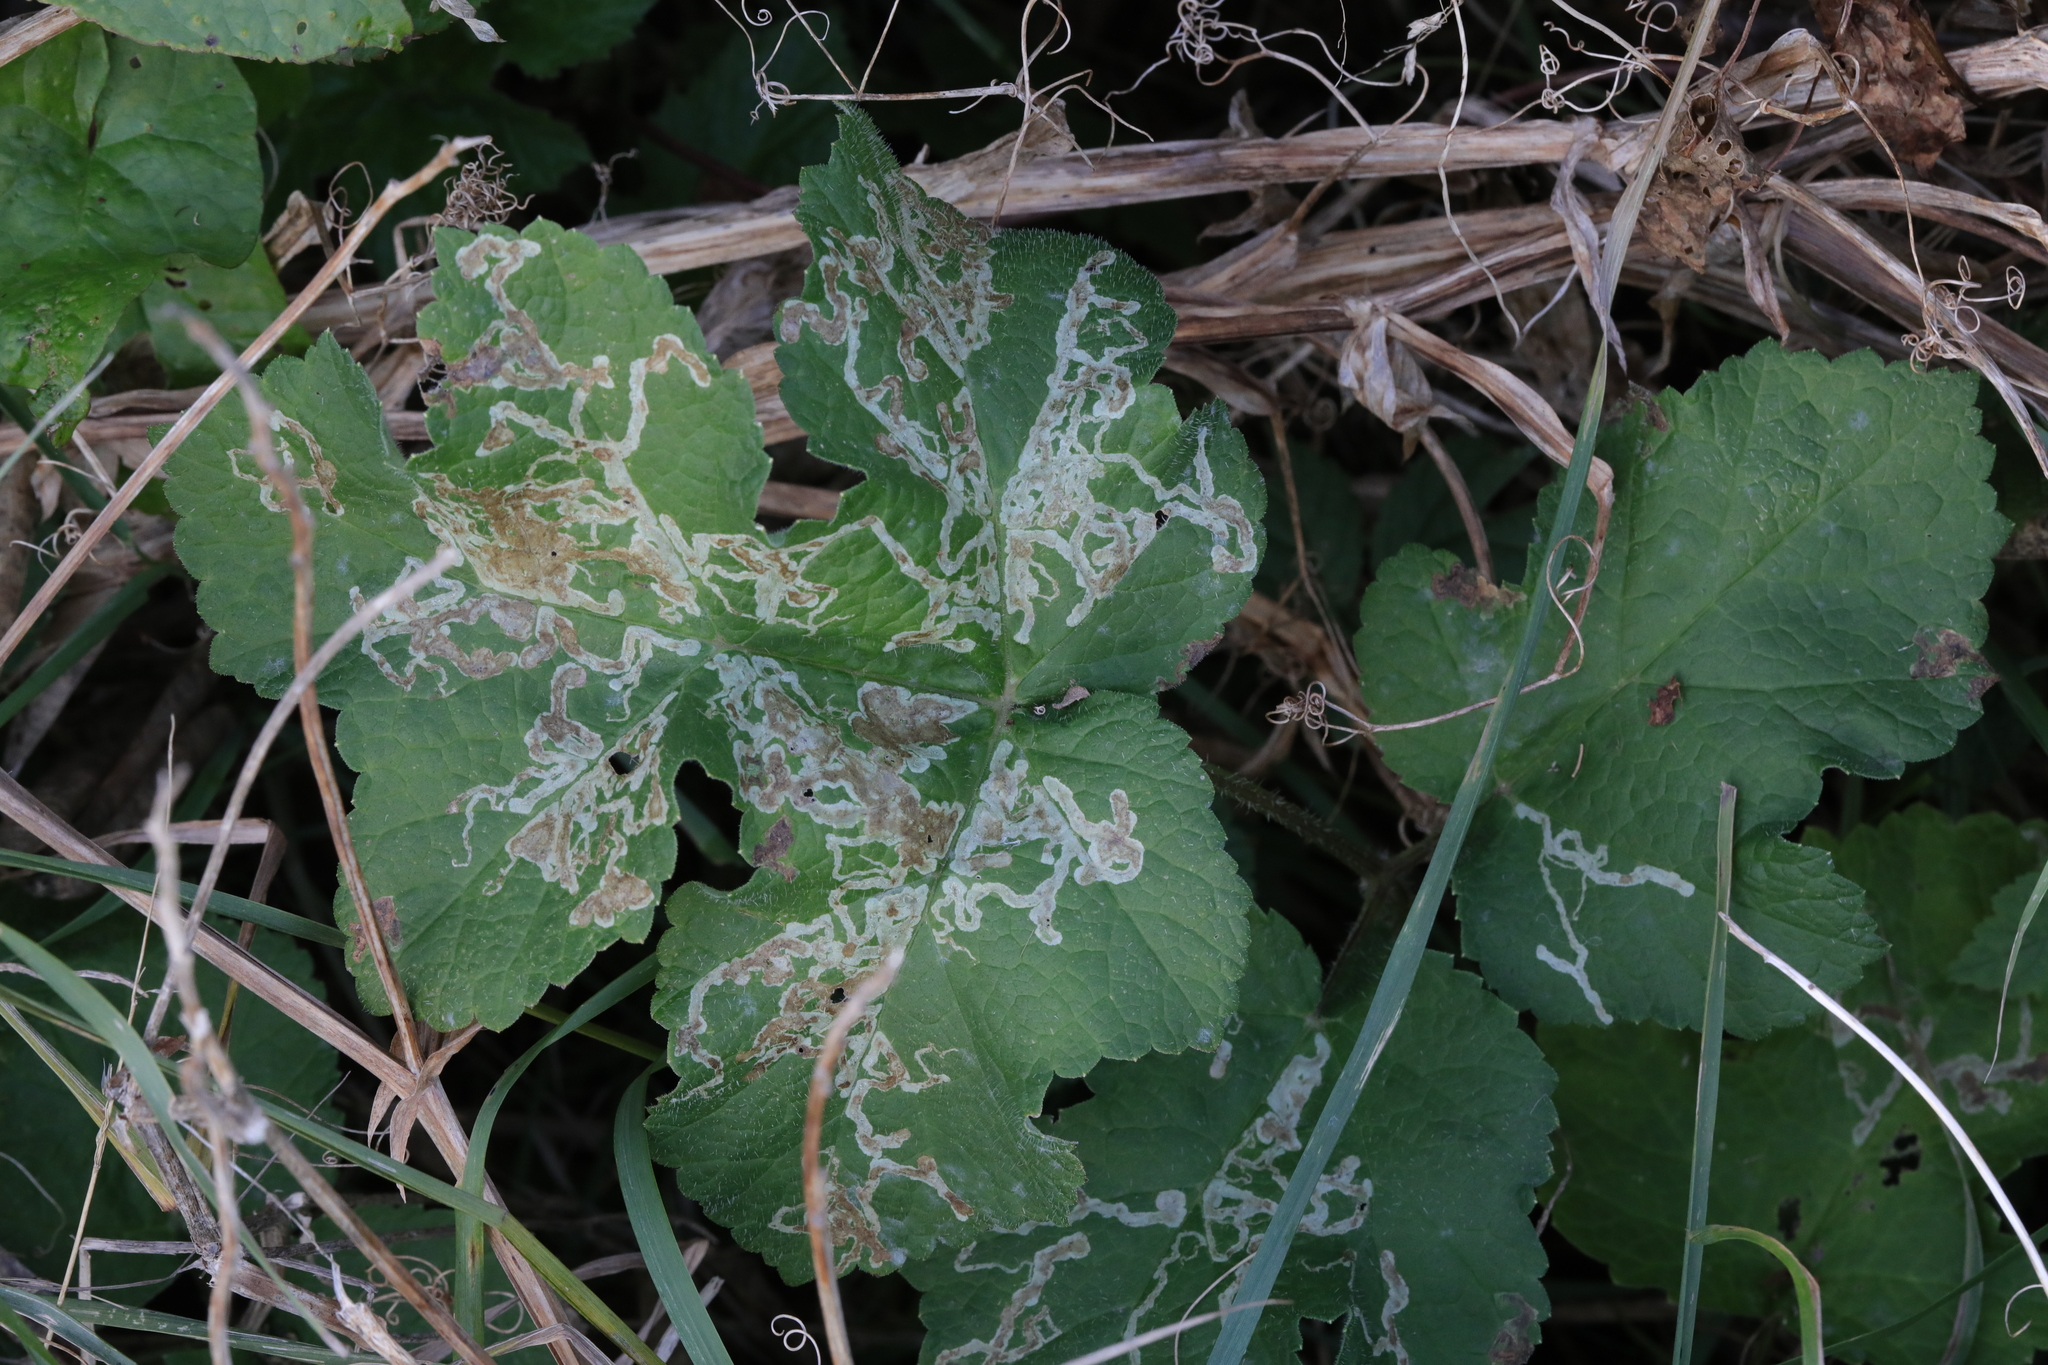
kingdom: Plantae
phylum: Tracheophyta
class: Magnoliopsida
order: Apiales
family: Apiaceae
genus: Heracleum
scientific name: Heracleum sphondylium
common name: Hogweed
